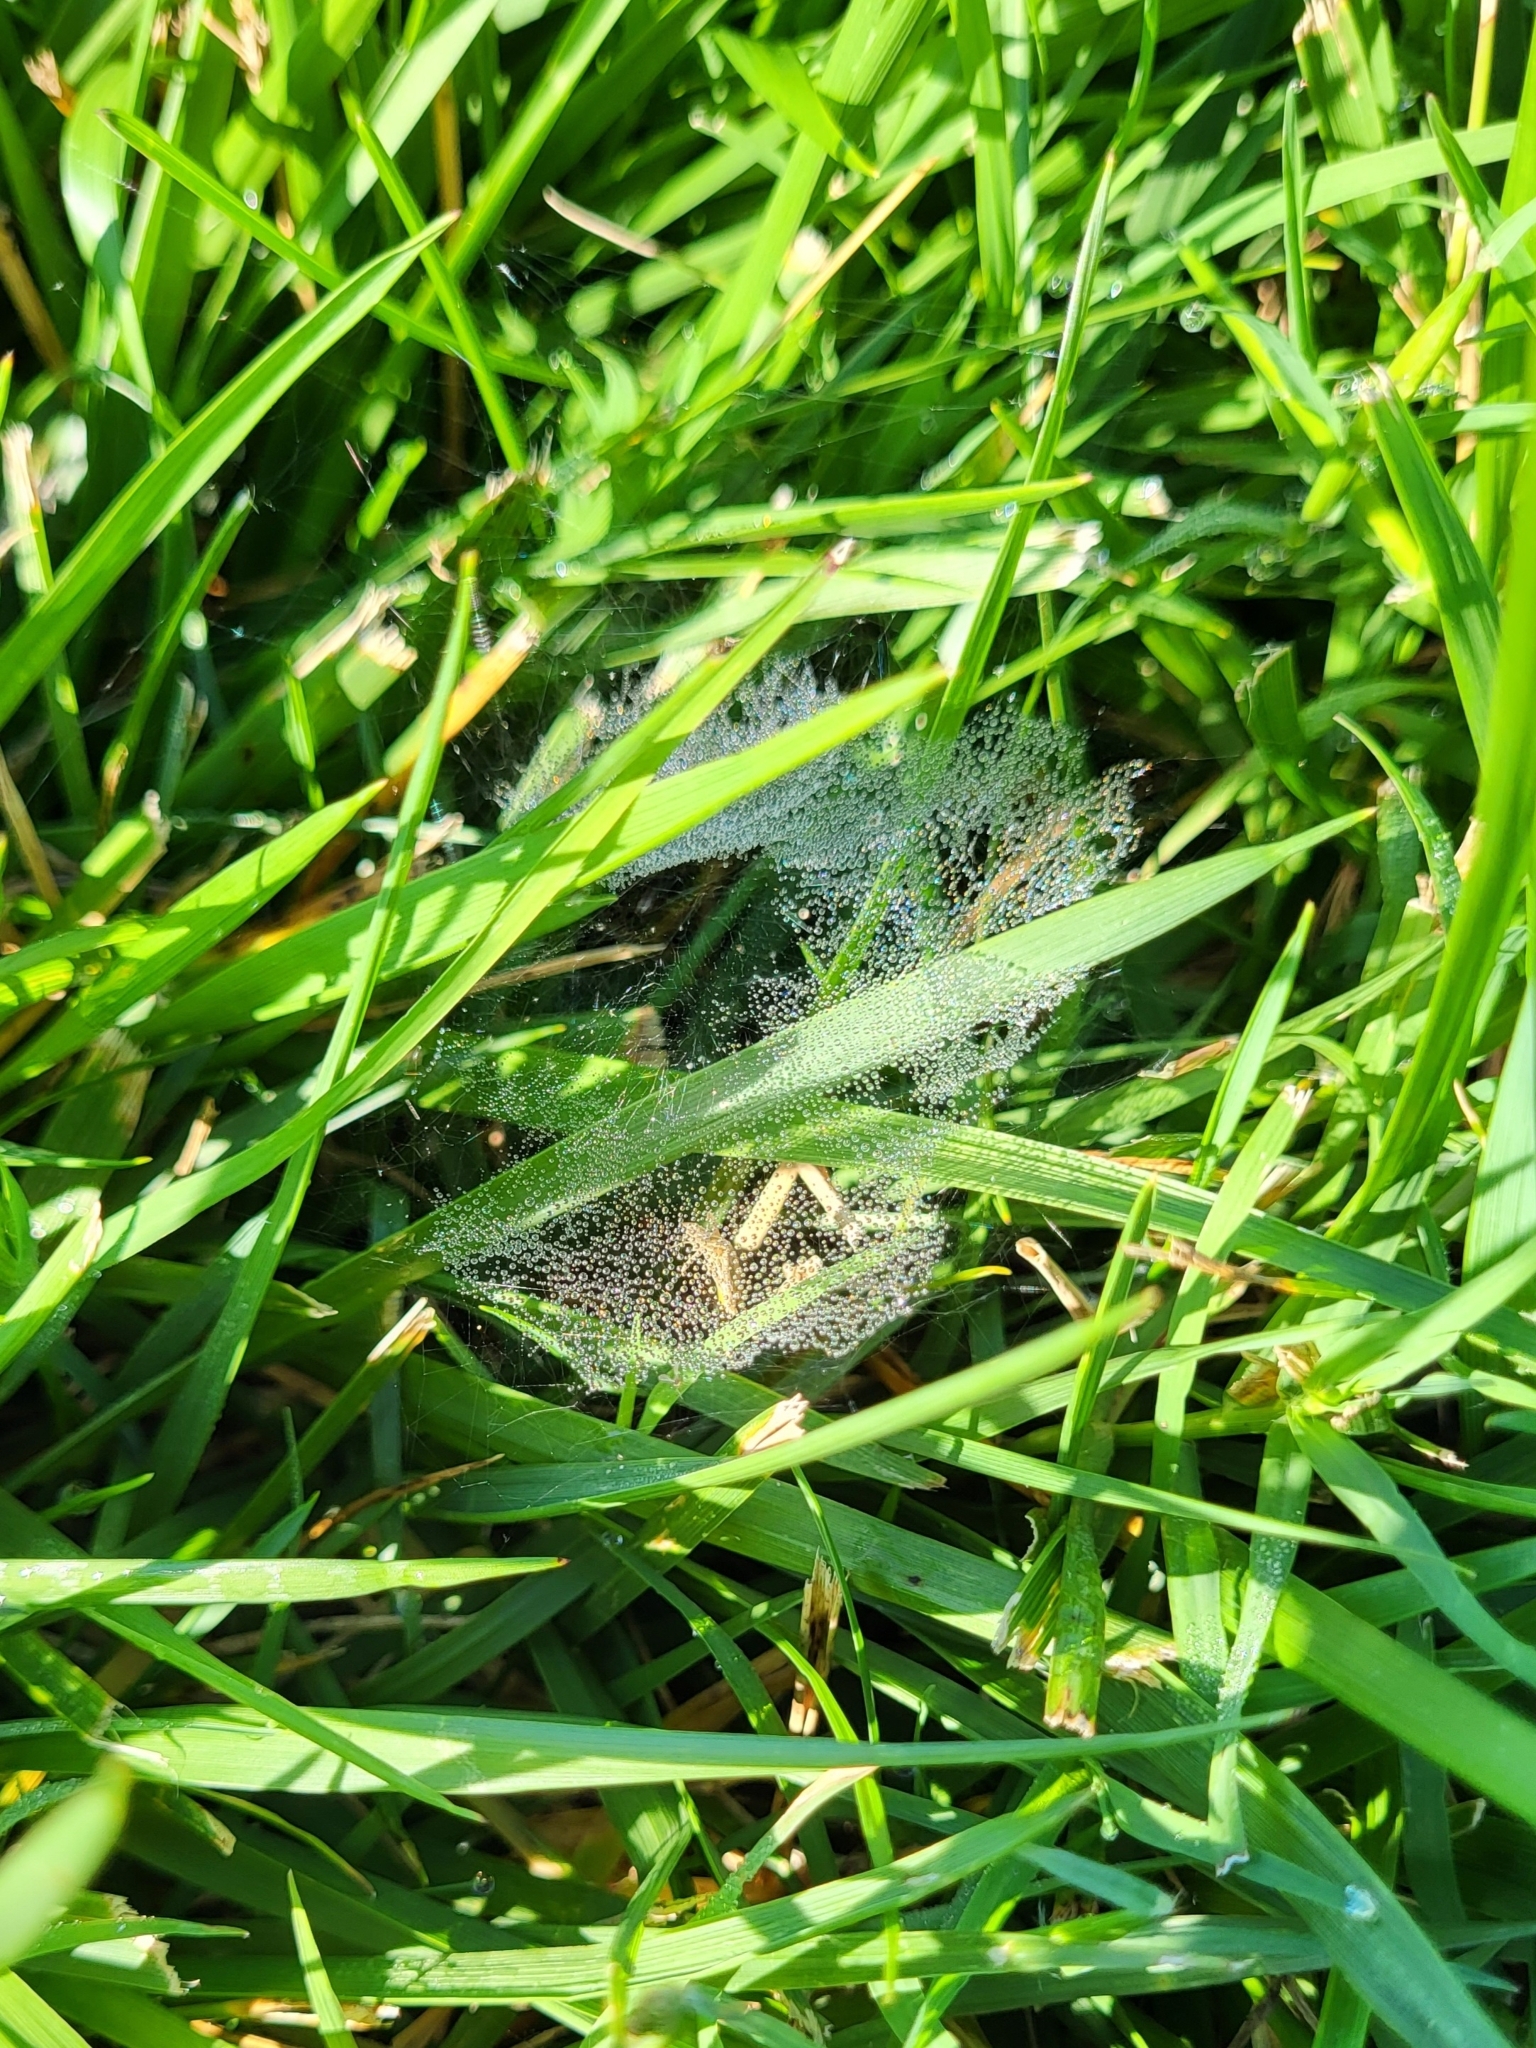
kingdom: Animalia
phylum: Arthropoda
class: Arachnida
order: Araneae
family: Linyphiidae
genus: Florinda
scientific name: Florinda coccinea
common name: Black-tailed red sheetweaver
